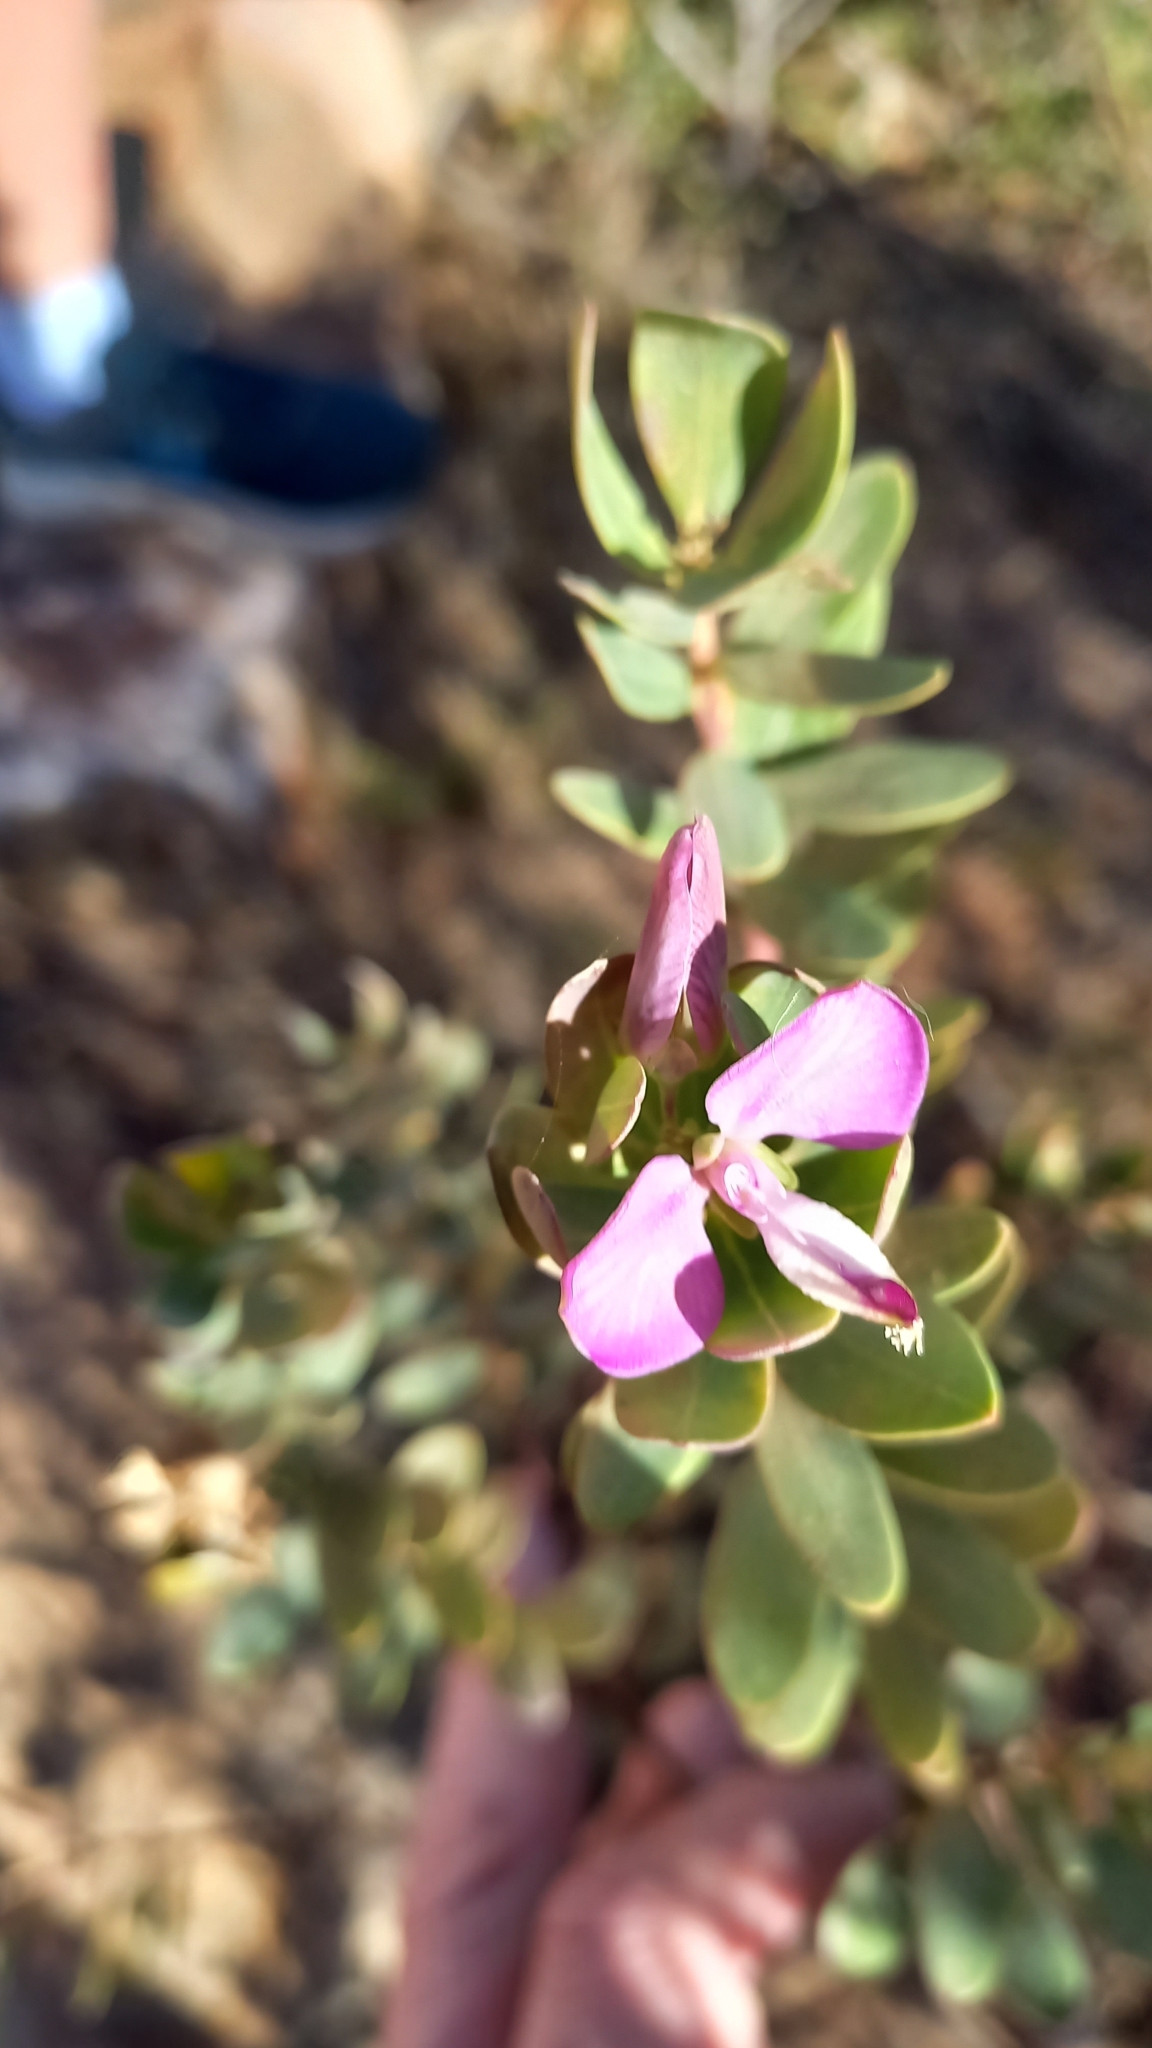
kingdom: Plantae
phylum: Tracheophyta
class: Magnoliopsida
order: Fabales
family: Polygalaceae
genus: Polygala
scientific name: Polygala myrtifolia
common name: Myrtle-leaf milkwort
